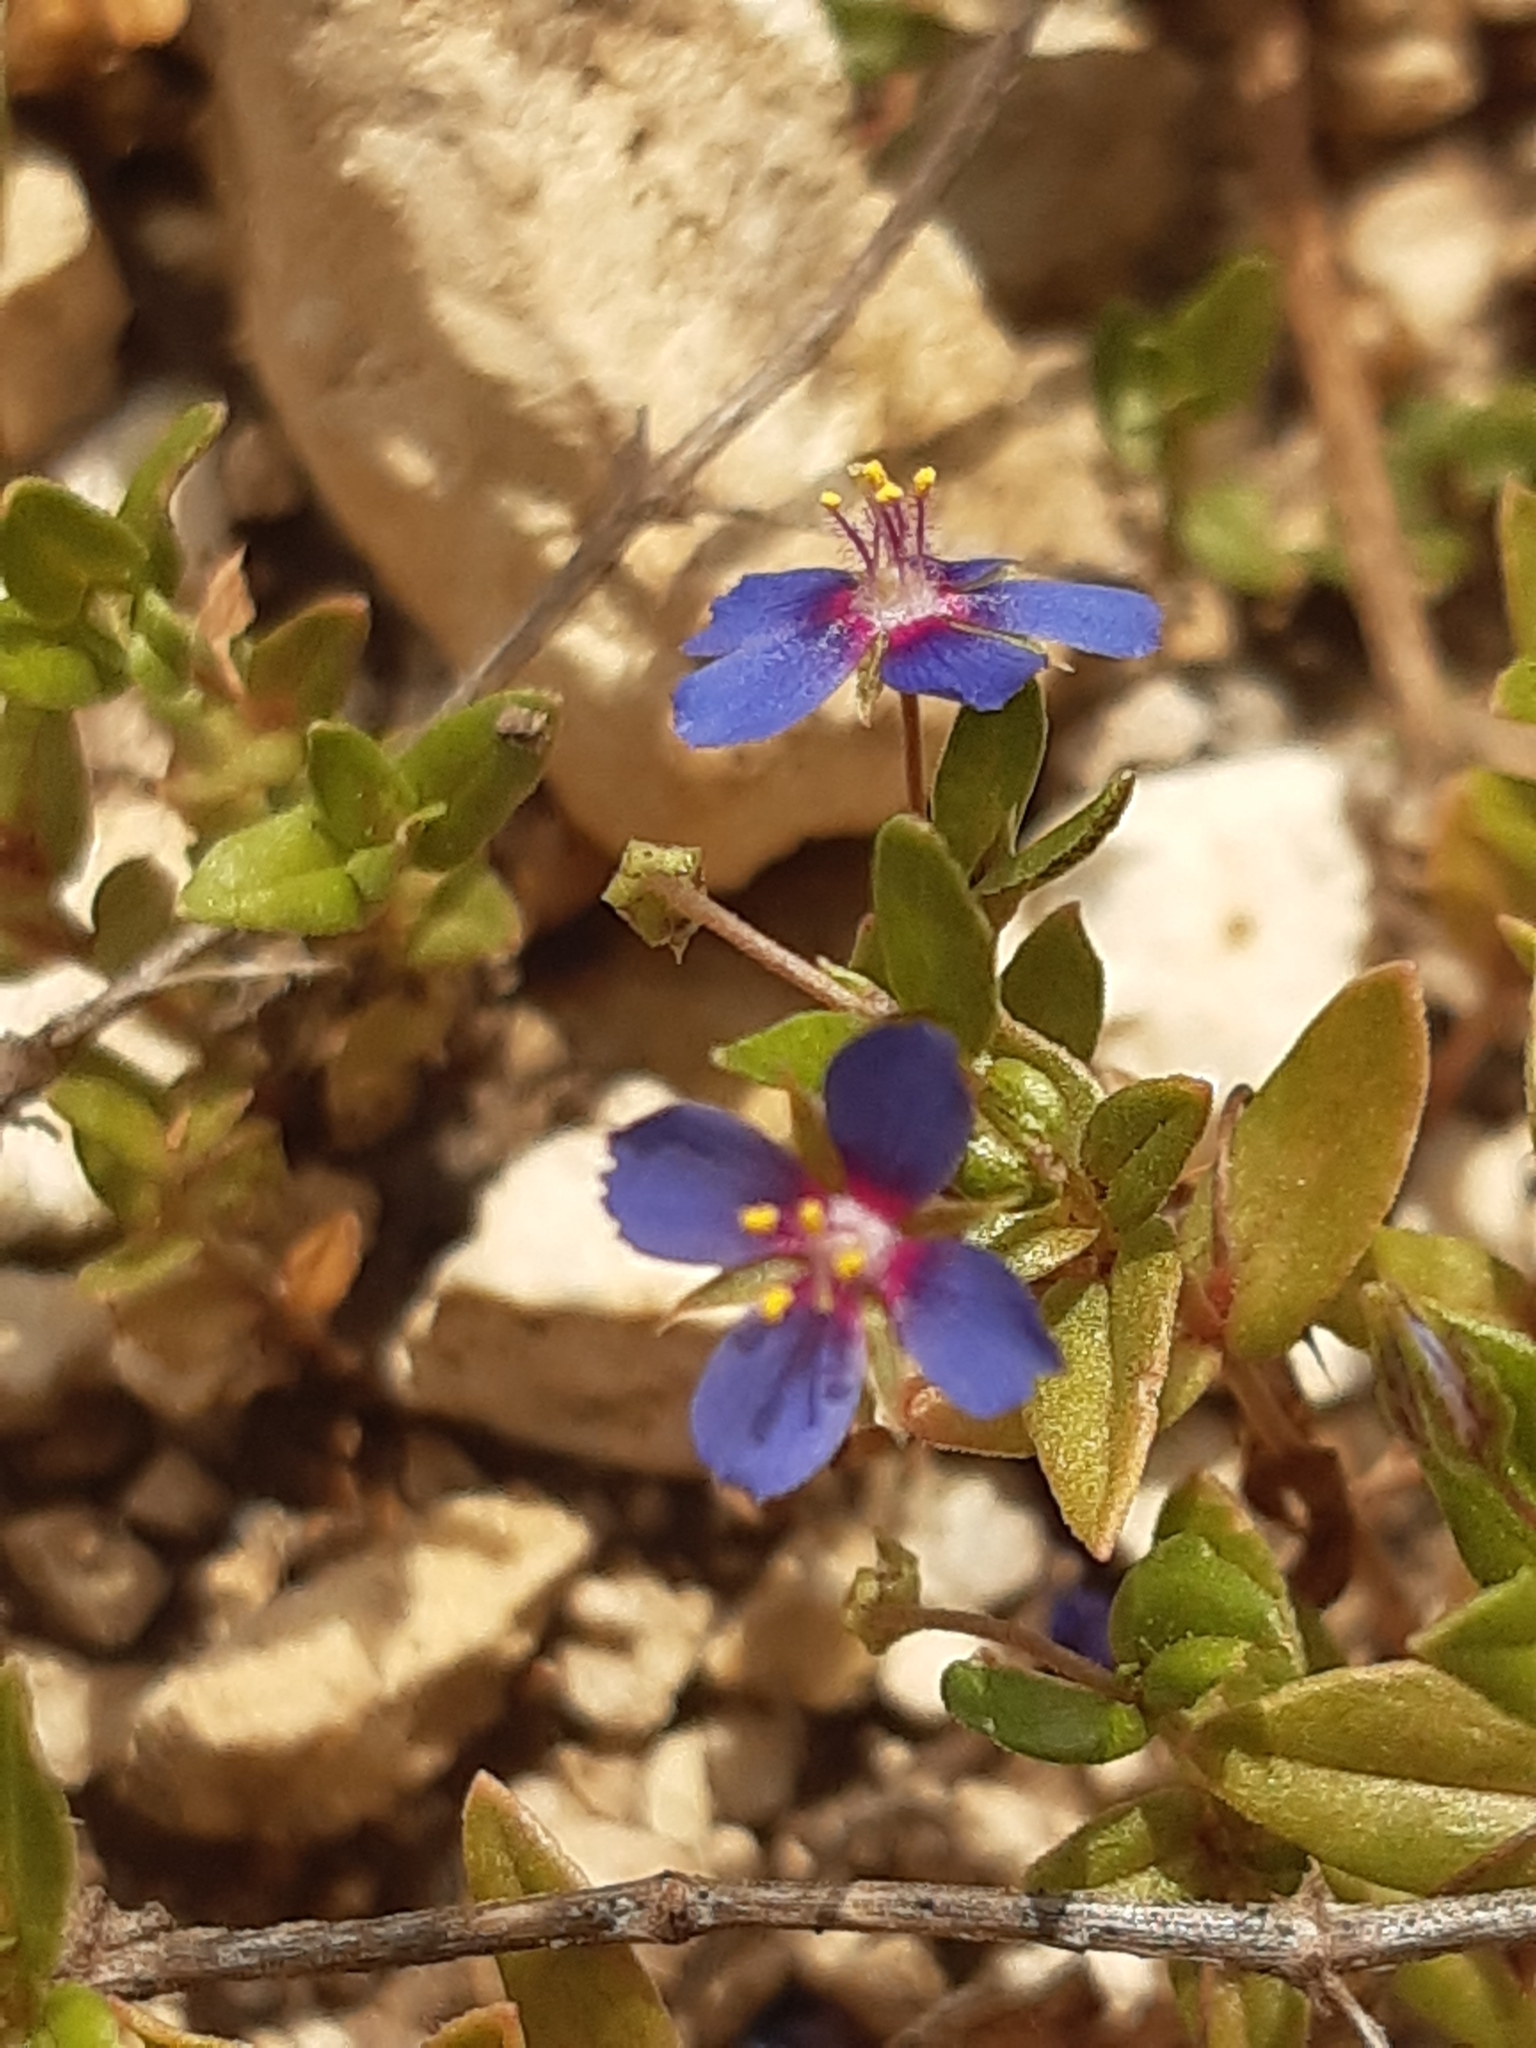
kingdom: Plantae
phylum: Tracheophyta
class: Magnoliopsida
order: Ericales
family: Primulaceae
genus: Lysimachia
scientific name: Lysimachia foemina
